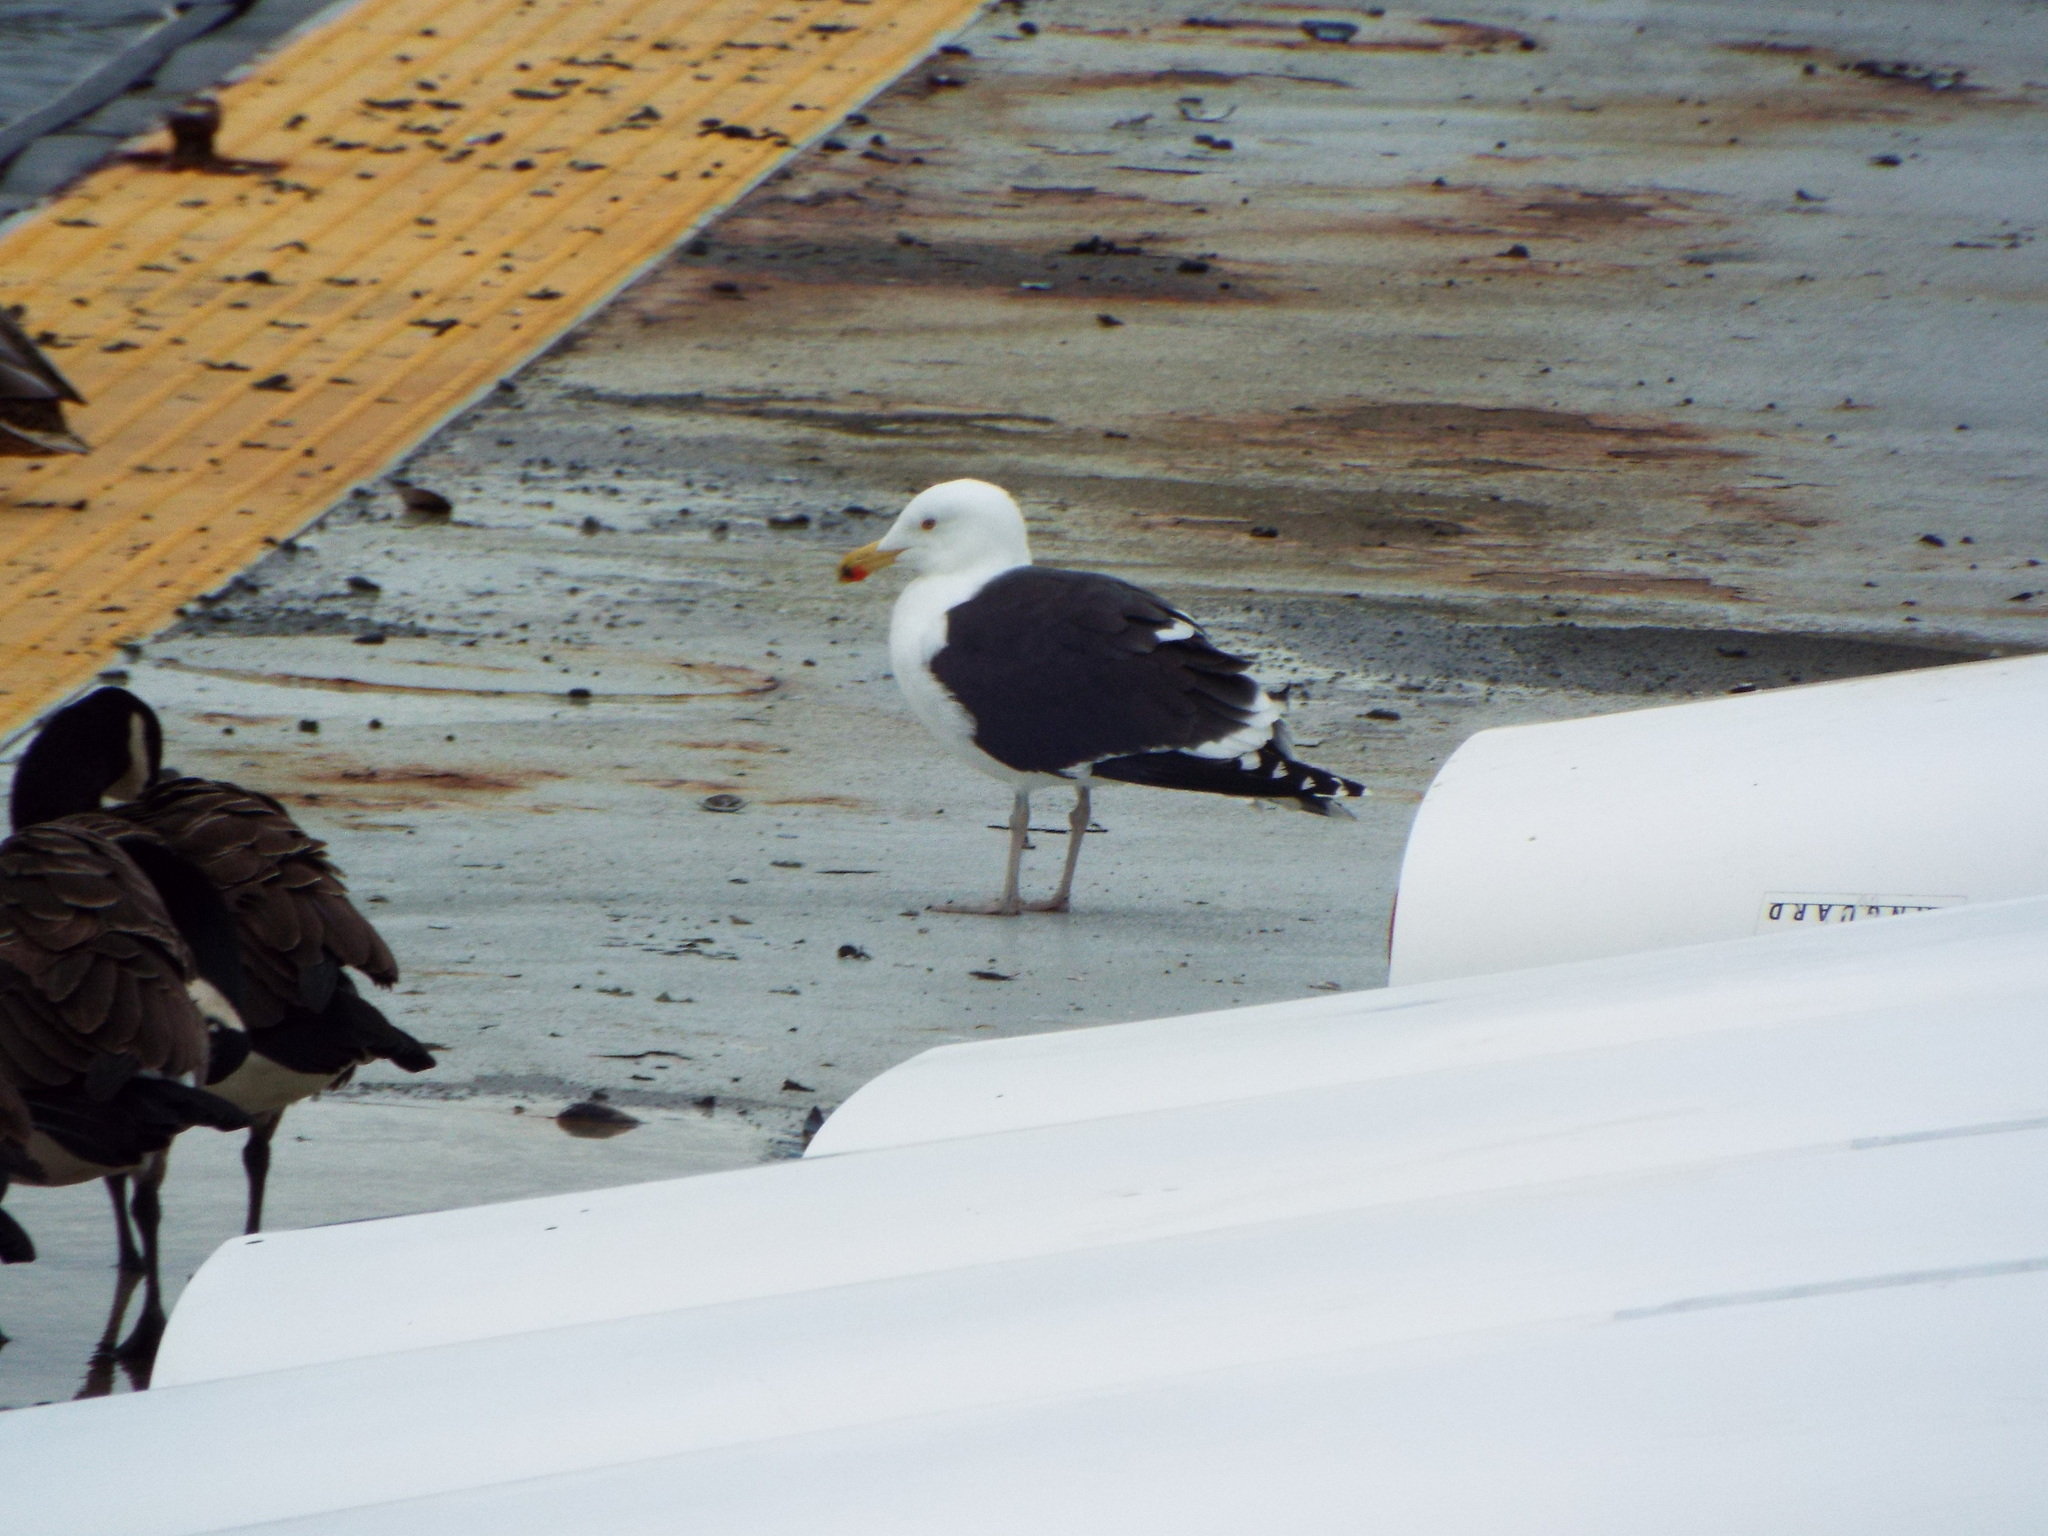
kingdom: Animalia
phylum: Chordata
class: Aves
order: Charadriiformes
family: Laridae
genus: Larus
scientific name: Larus marinus
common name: Great black-backed gull
